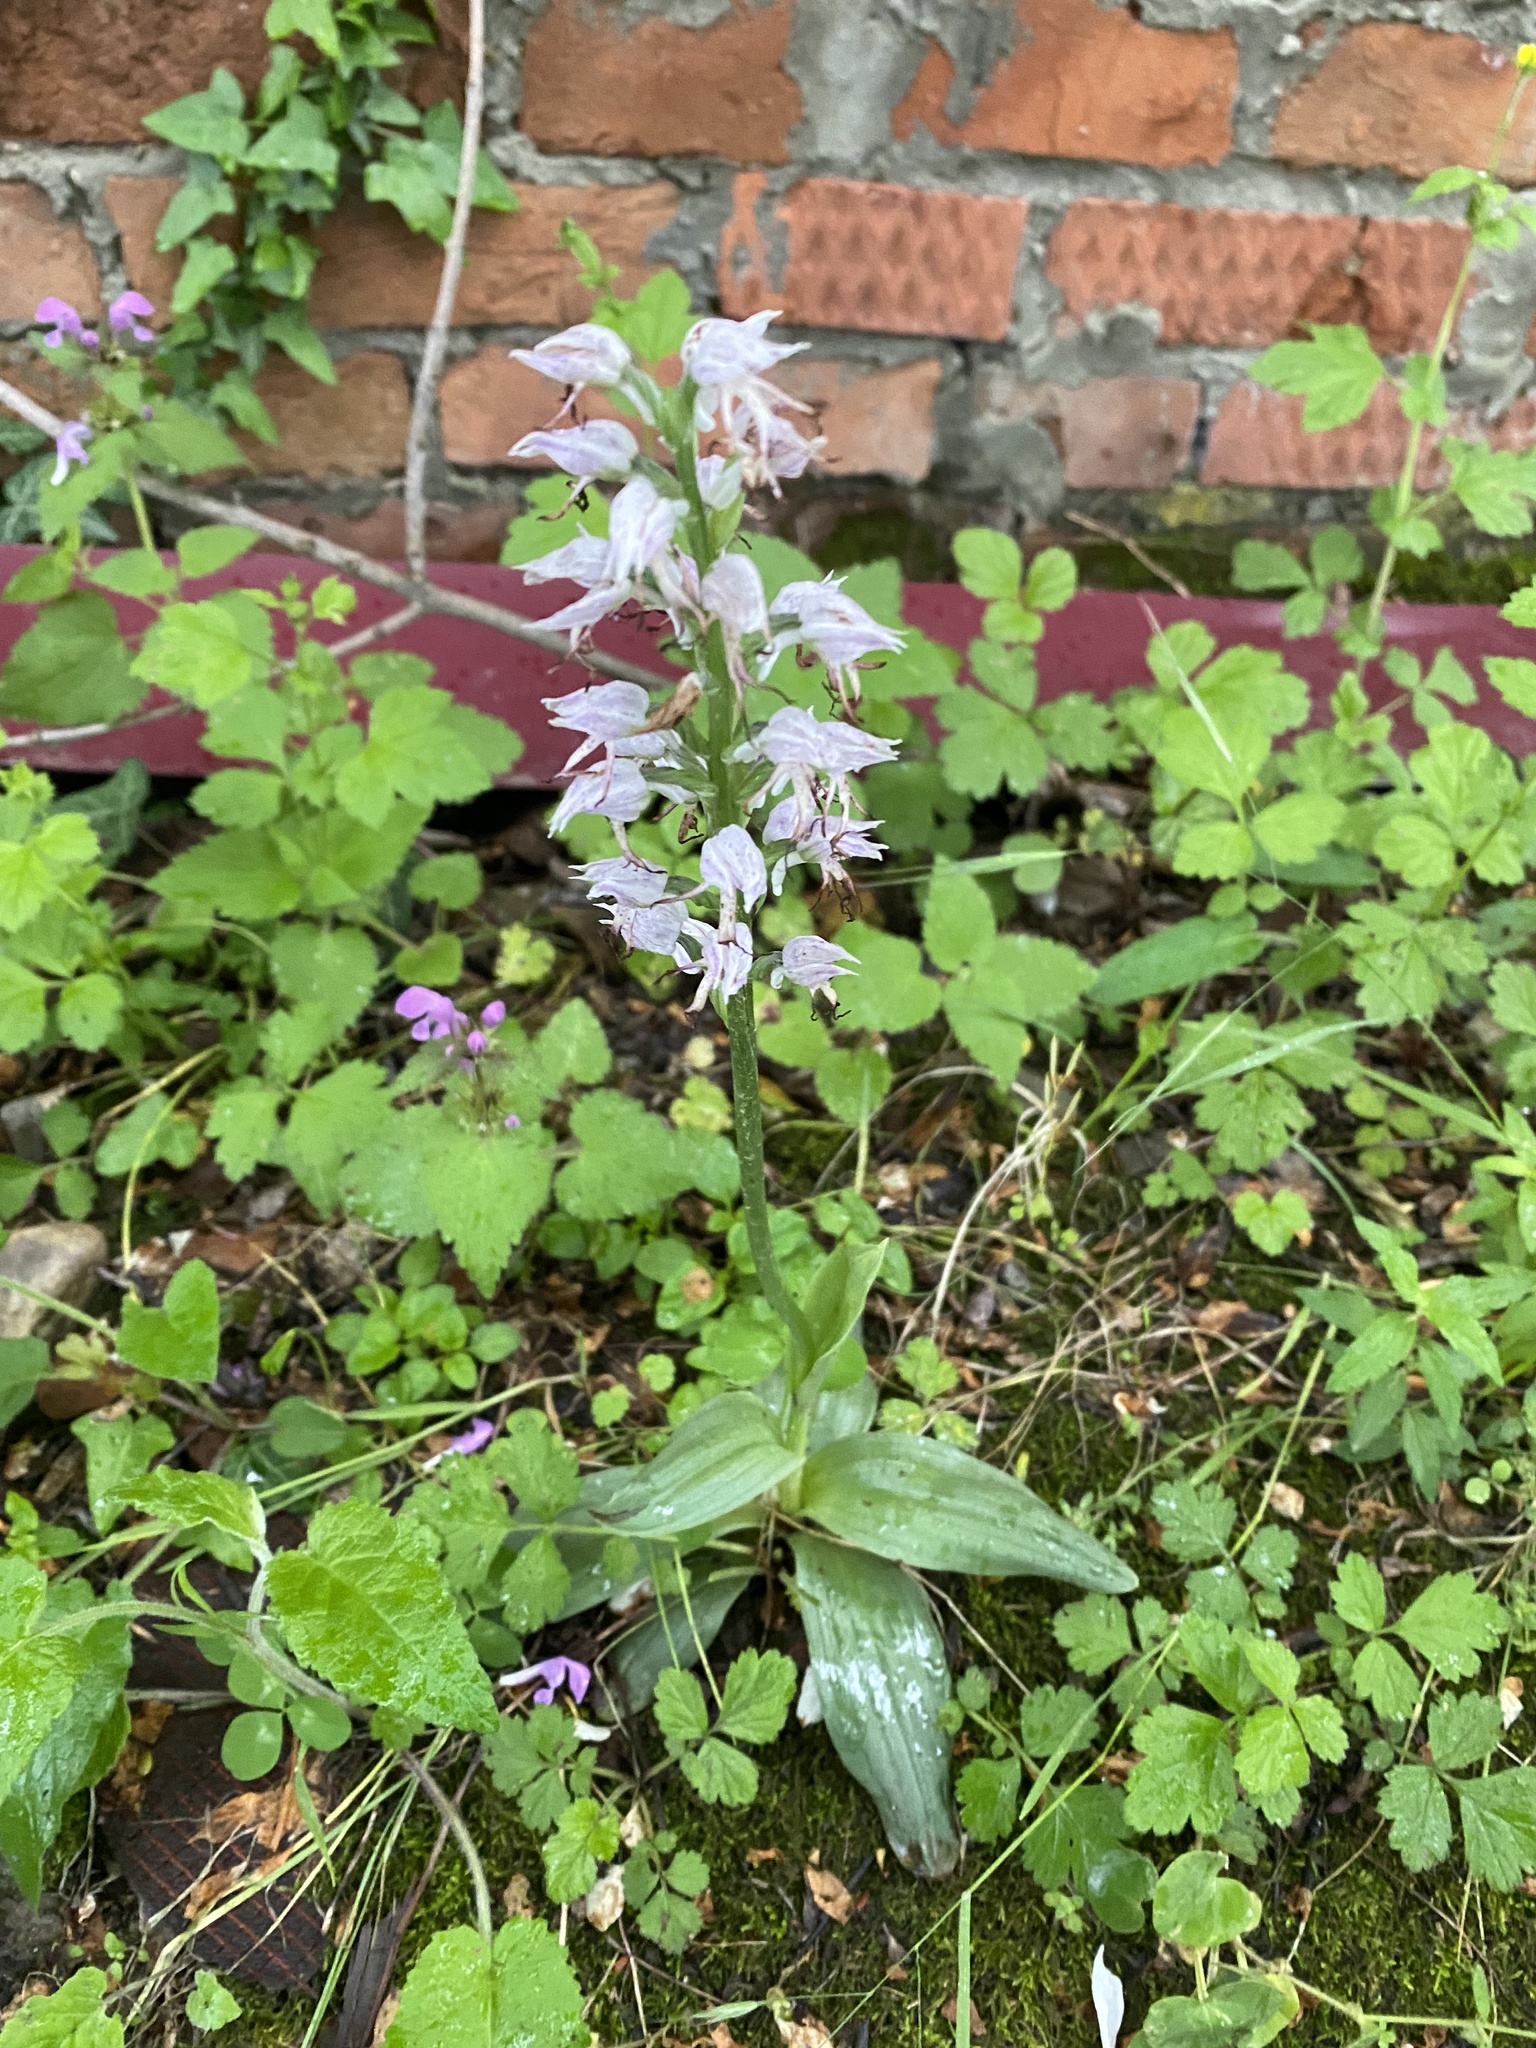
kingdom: Plantae
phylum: Tracheophyta
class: Liliopsida
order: Asparagales
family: Orchidaceae
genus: Orchis
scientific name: Orchis simia
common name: Monkey orchid
